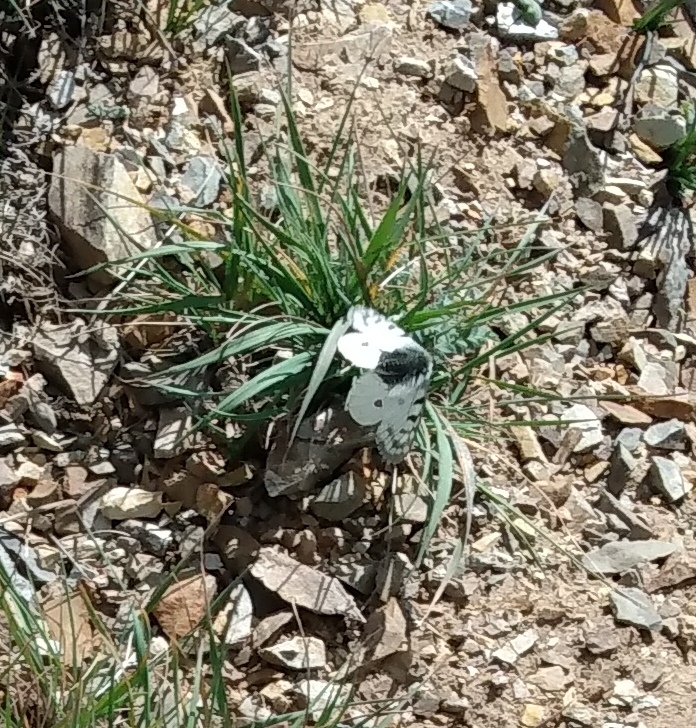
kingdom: Animalia
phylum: Arthropoda
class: Insecta
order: Lepidoptera
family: Papilionidae
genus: Parnassius
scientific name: Parnassius smintheus
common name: Mountain parnassian
